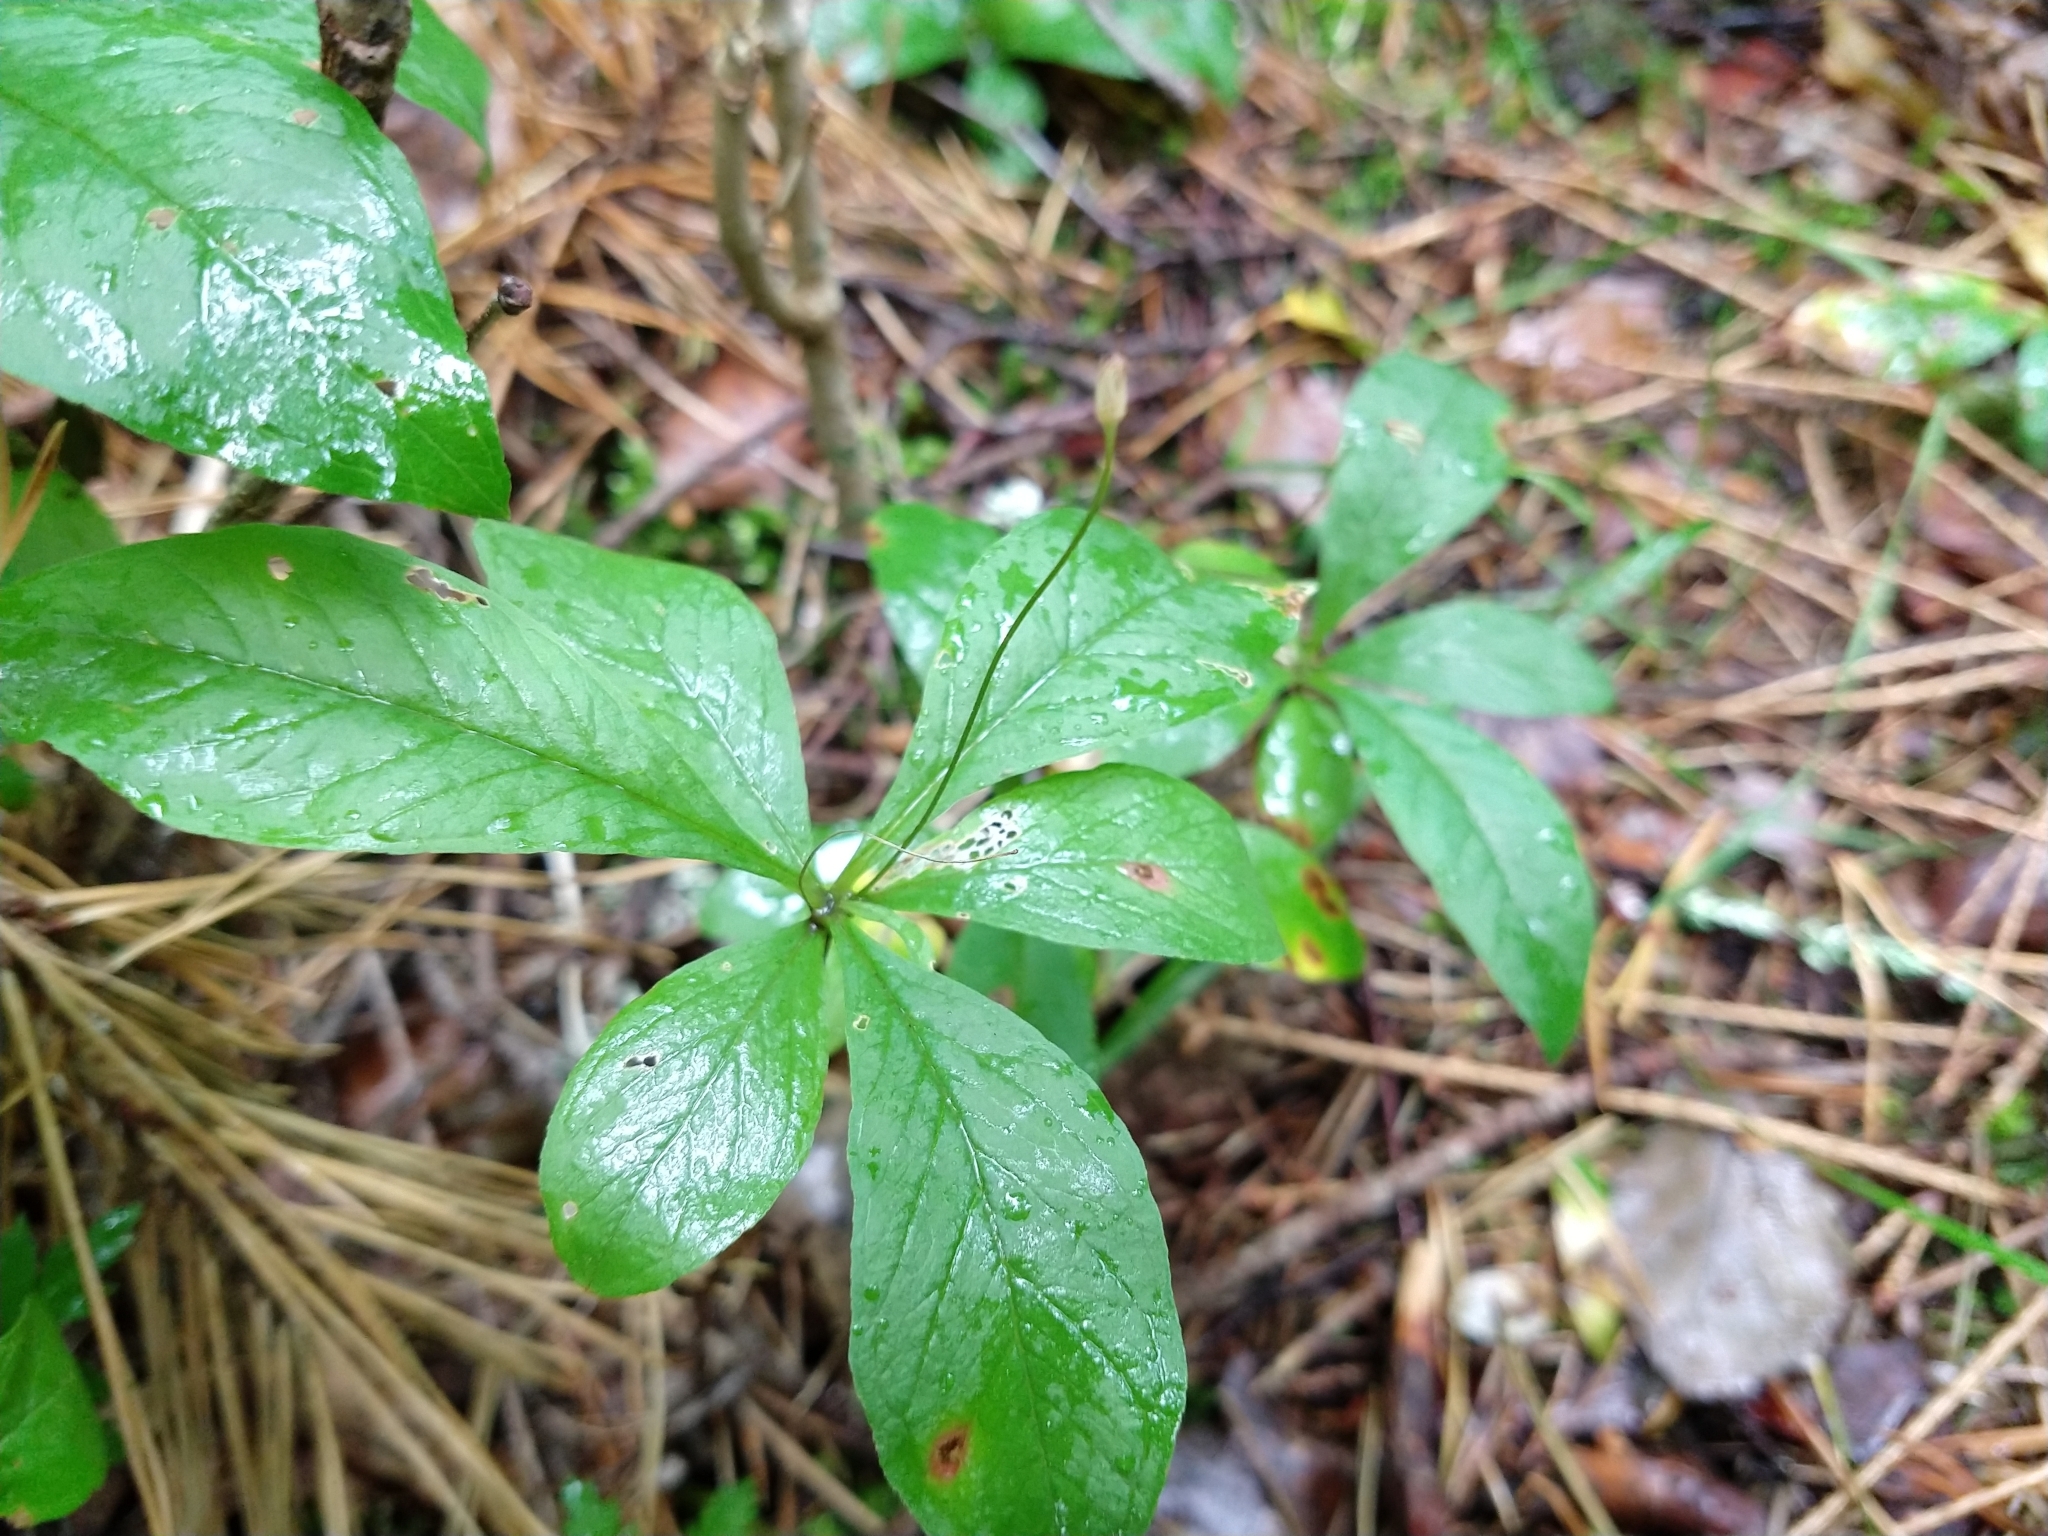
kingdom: Plantae
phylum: Tracheophyta
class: Magnoliopsida
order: Ericales
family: Primulaceae
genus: Lysimachia
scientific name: Lysimachia europaea
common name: Arctic starflower
